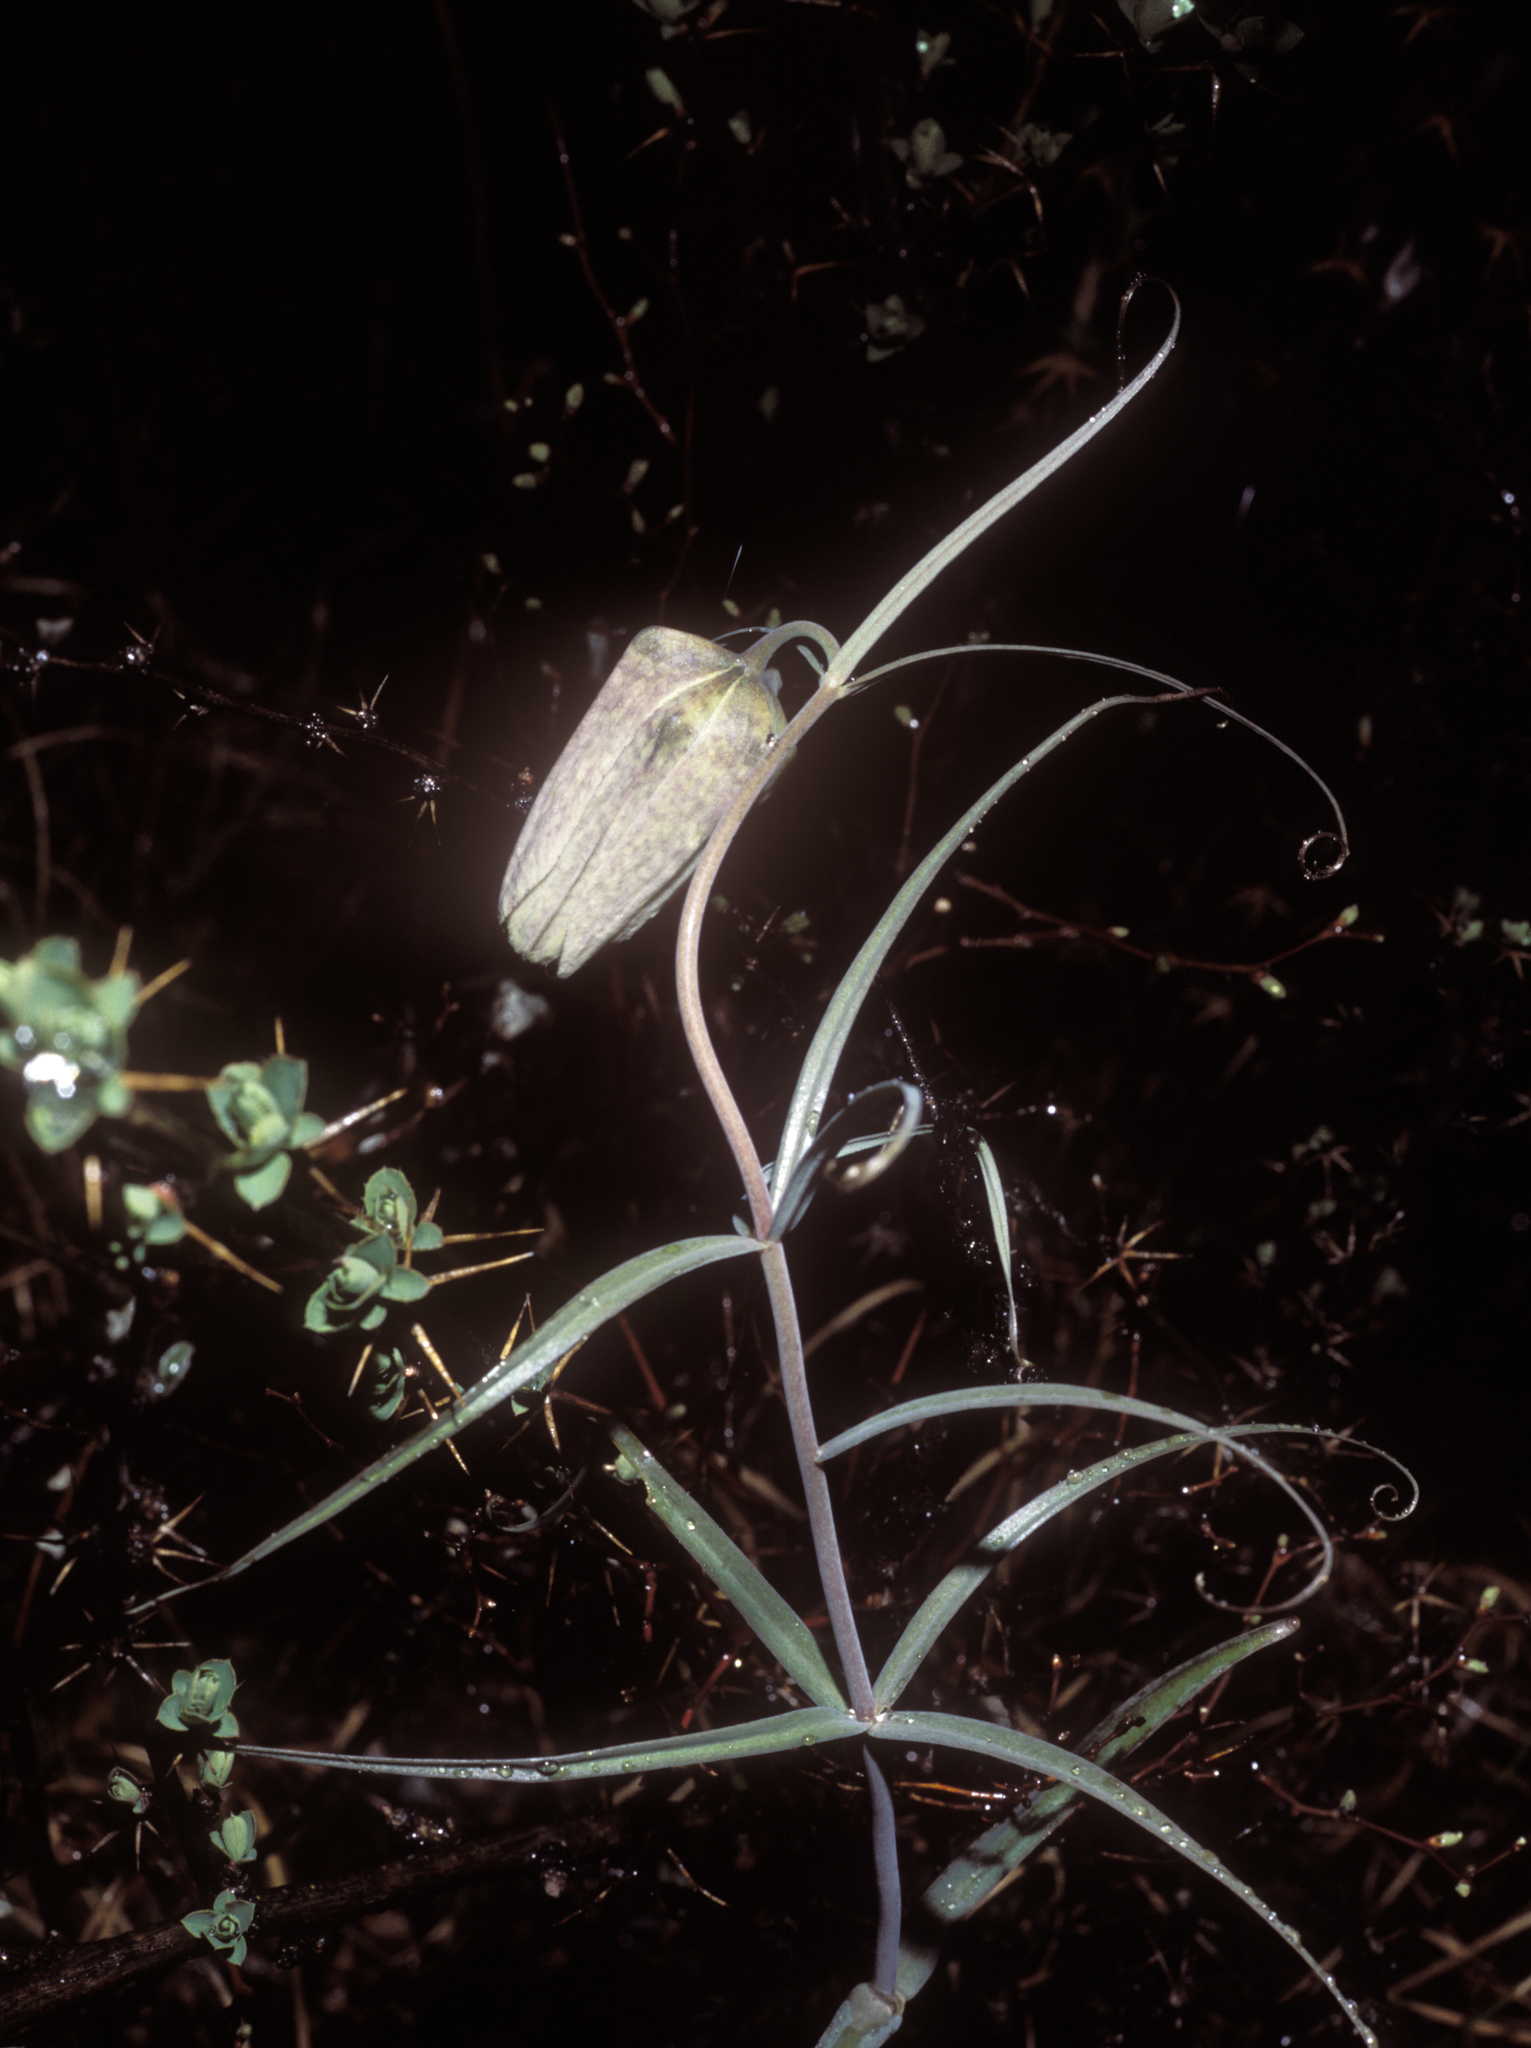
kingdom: Plantae
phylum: Tracheophyta
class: Liliopsida
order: Liliales
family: Liliaceae
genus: Fritillaria
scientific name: Fritillaria verticillata
